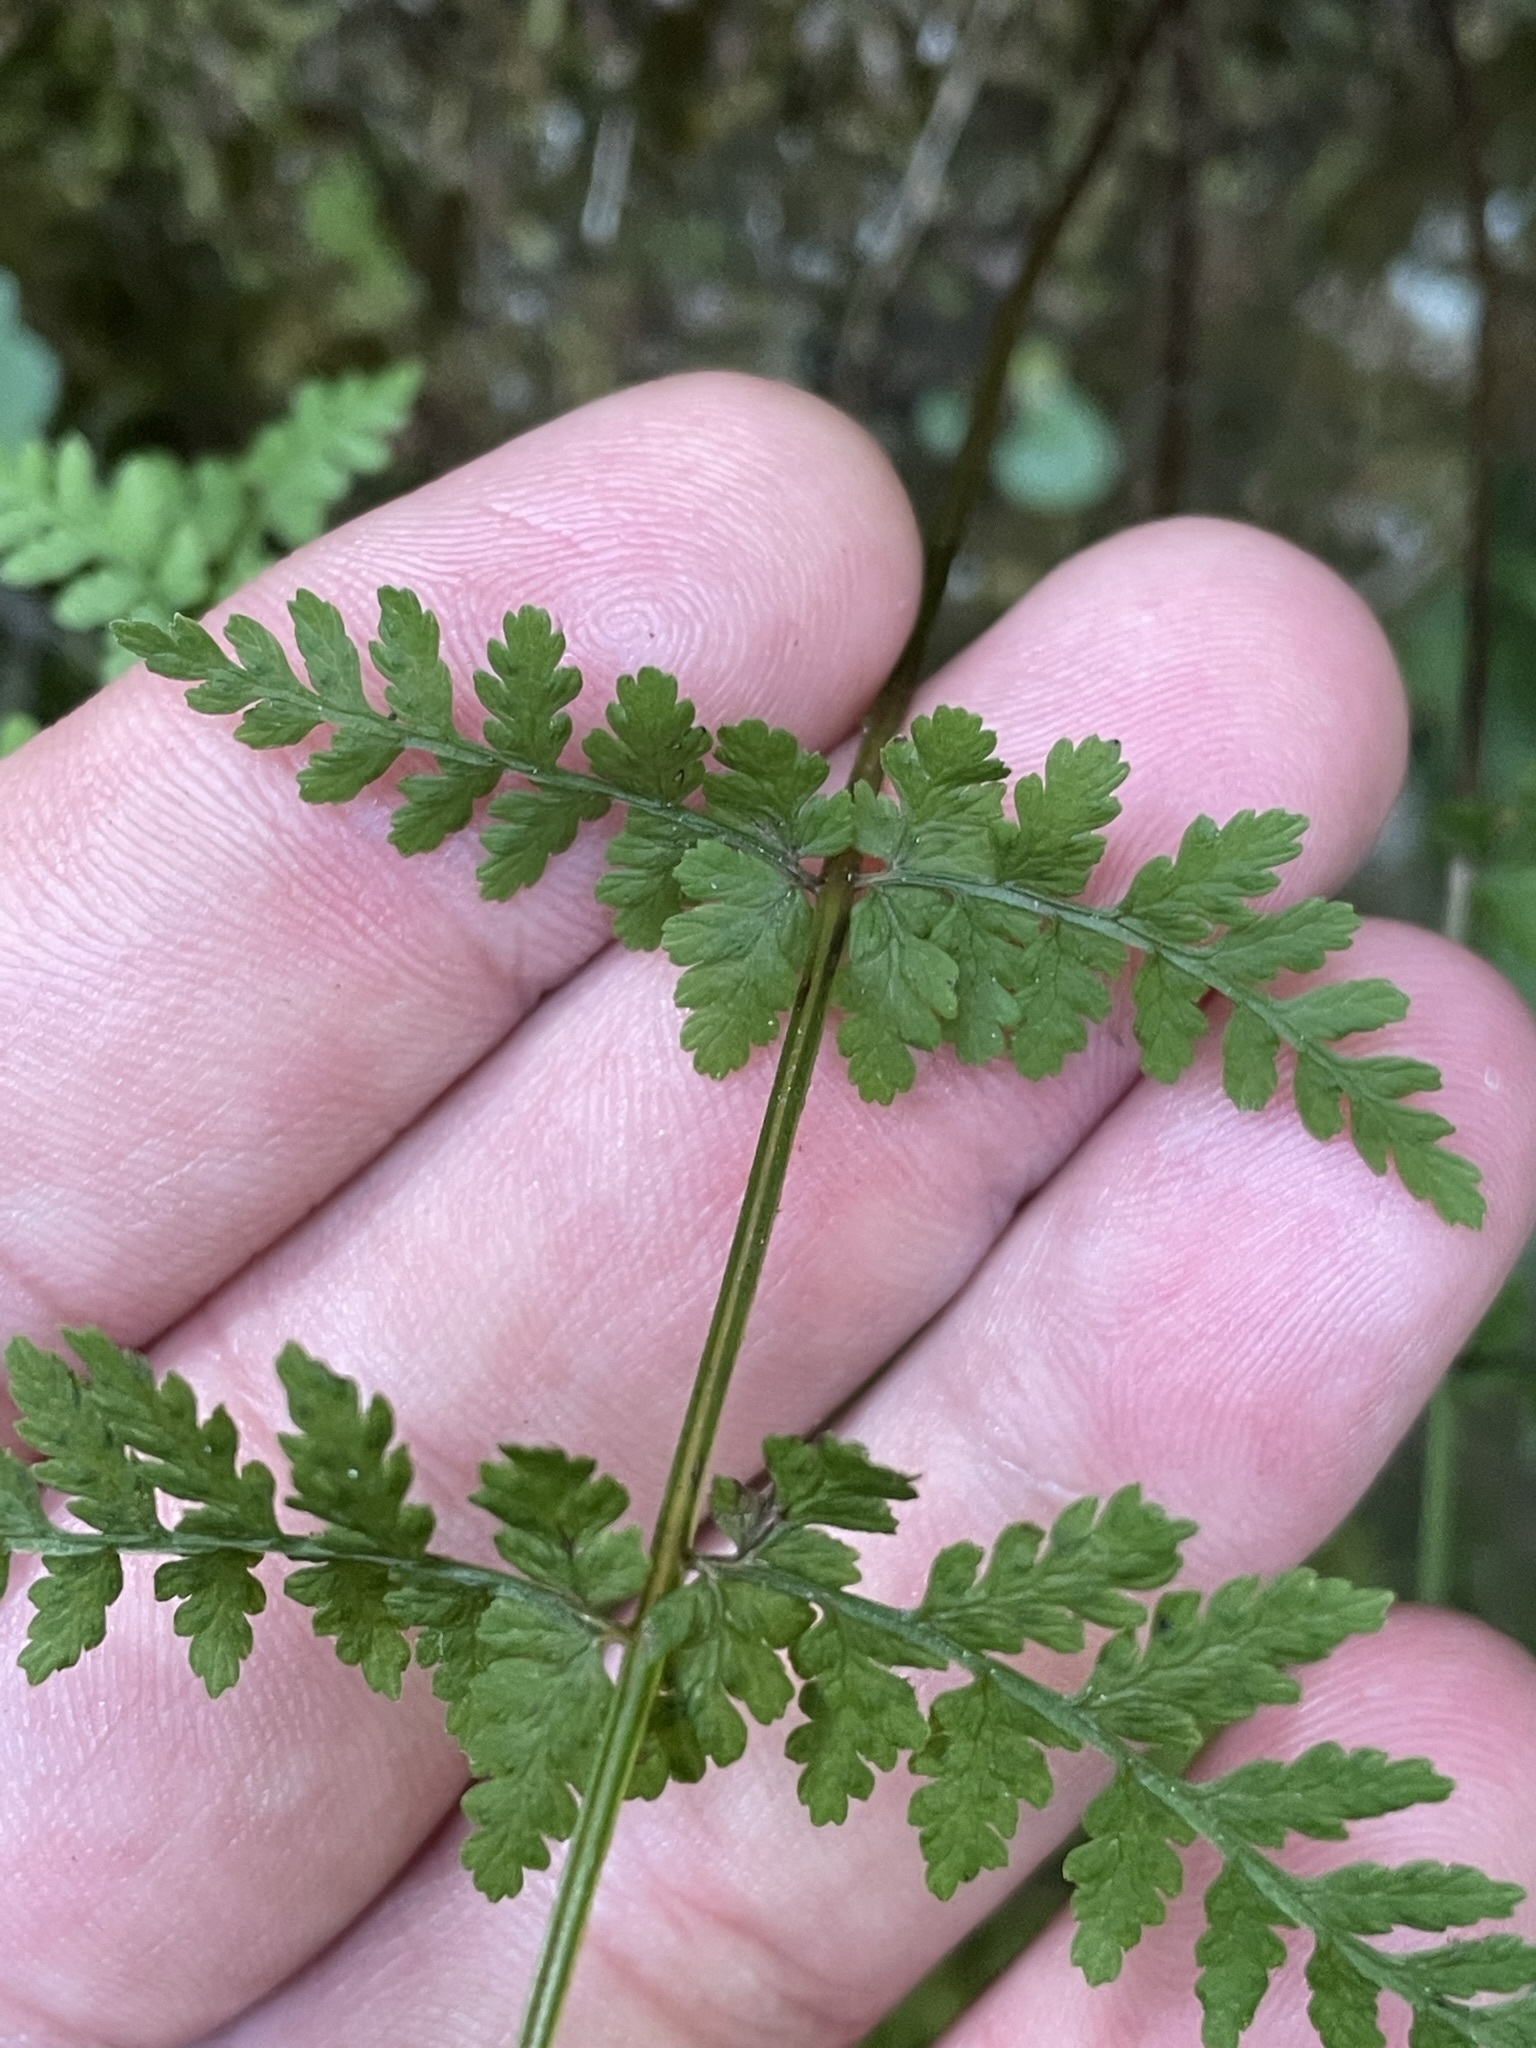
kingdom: Plantae
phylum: Tracheophyta
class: Polypodiopsida
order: Polypodiales
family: Cystopteridaceae
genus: Cystopteris
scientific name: Cystopteris fragilis
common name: Brittle bladder fern
